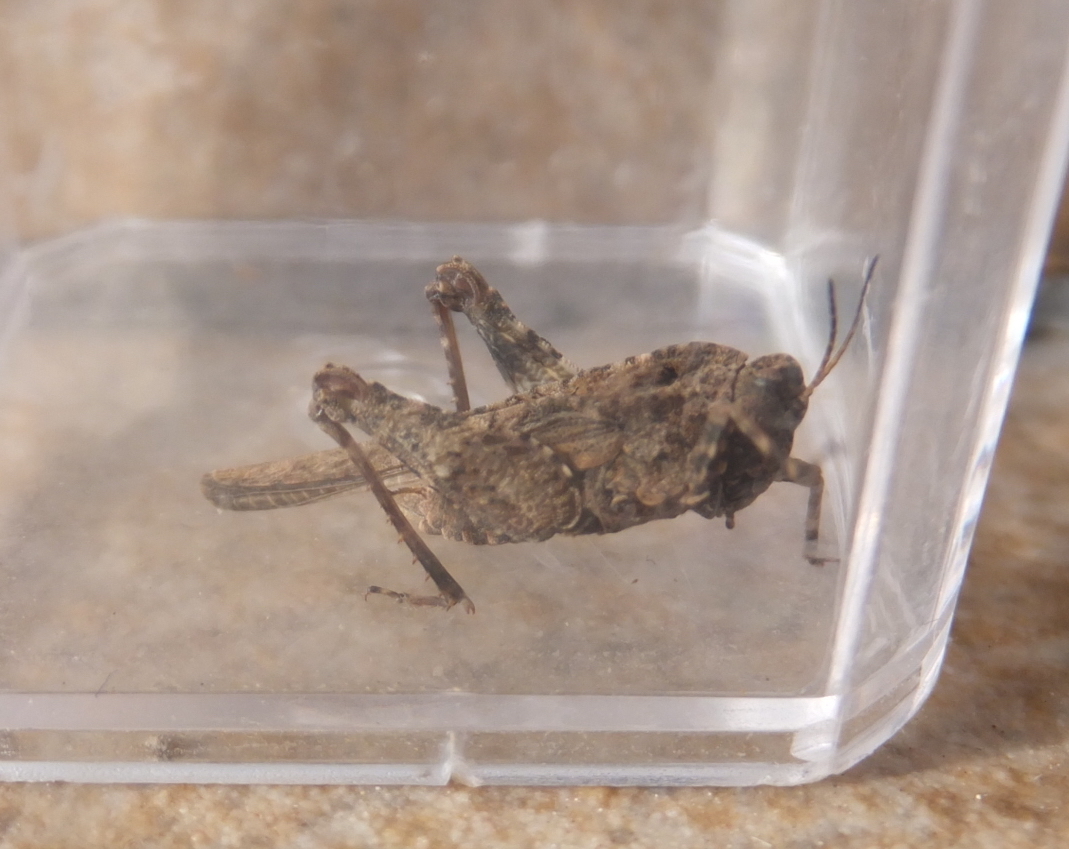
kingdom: Animalia
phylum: Arthropoda
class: Insecta
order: Orthoptera
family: Tetrigidae
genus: Tetrix
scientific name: Tetrix depressa
